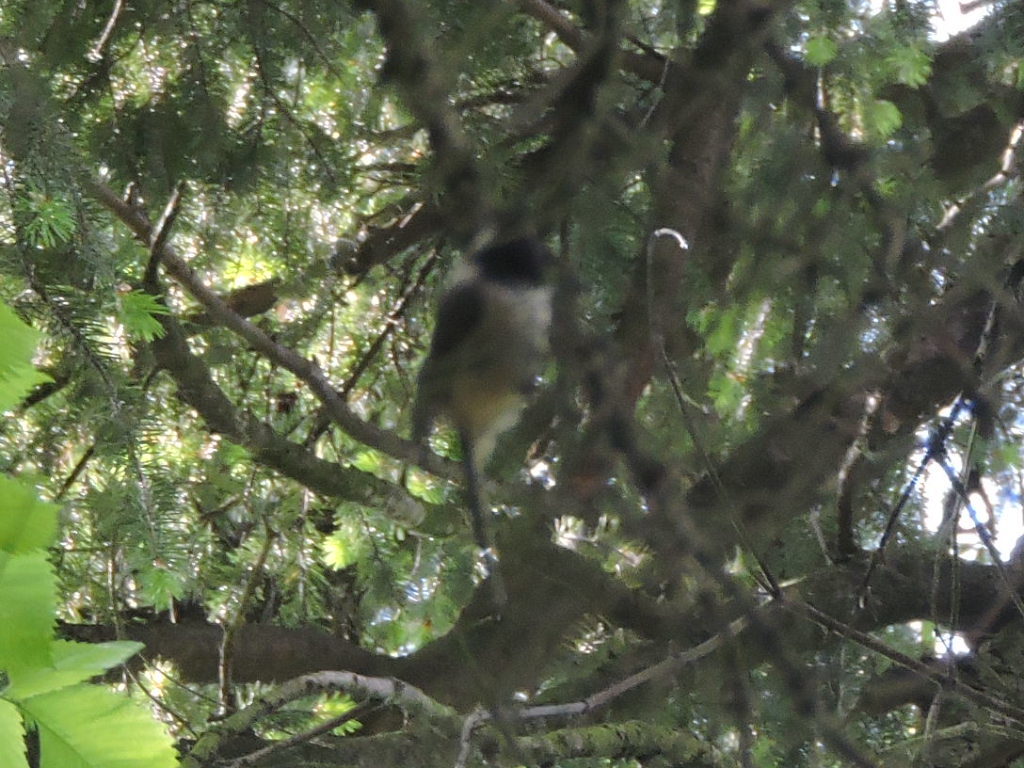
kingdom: Animalia
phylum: Chordata
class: Aves
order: Passeriformes
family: Paridae
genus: Poecile
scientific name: Poecile atricapillus
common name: Black-capped chickadee
